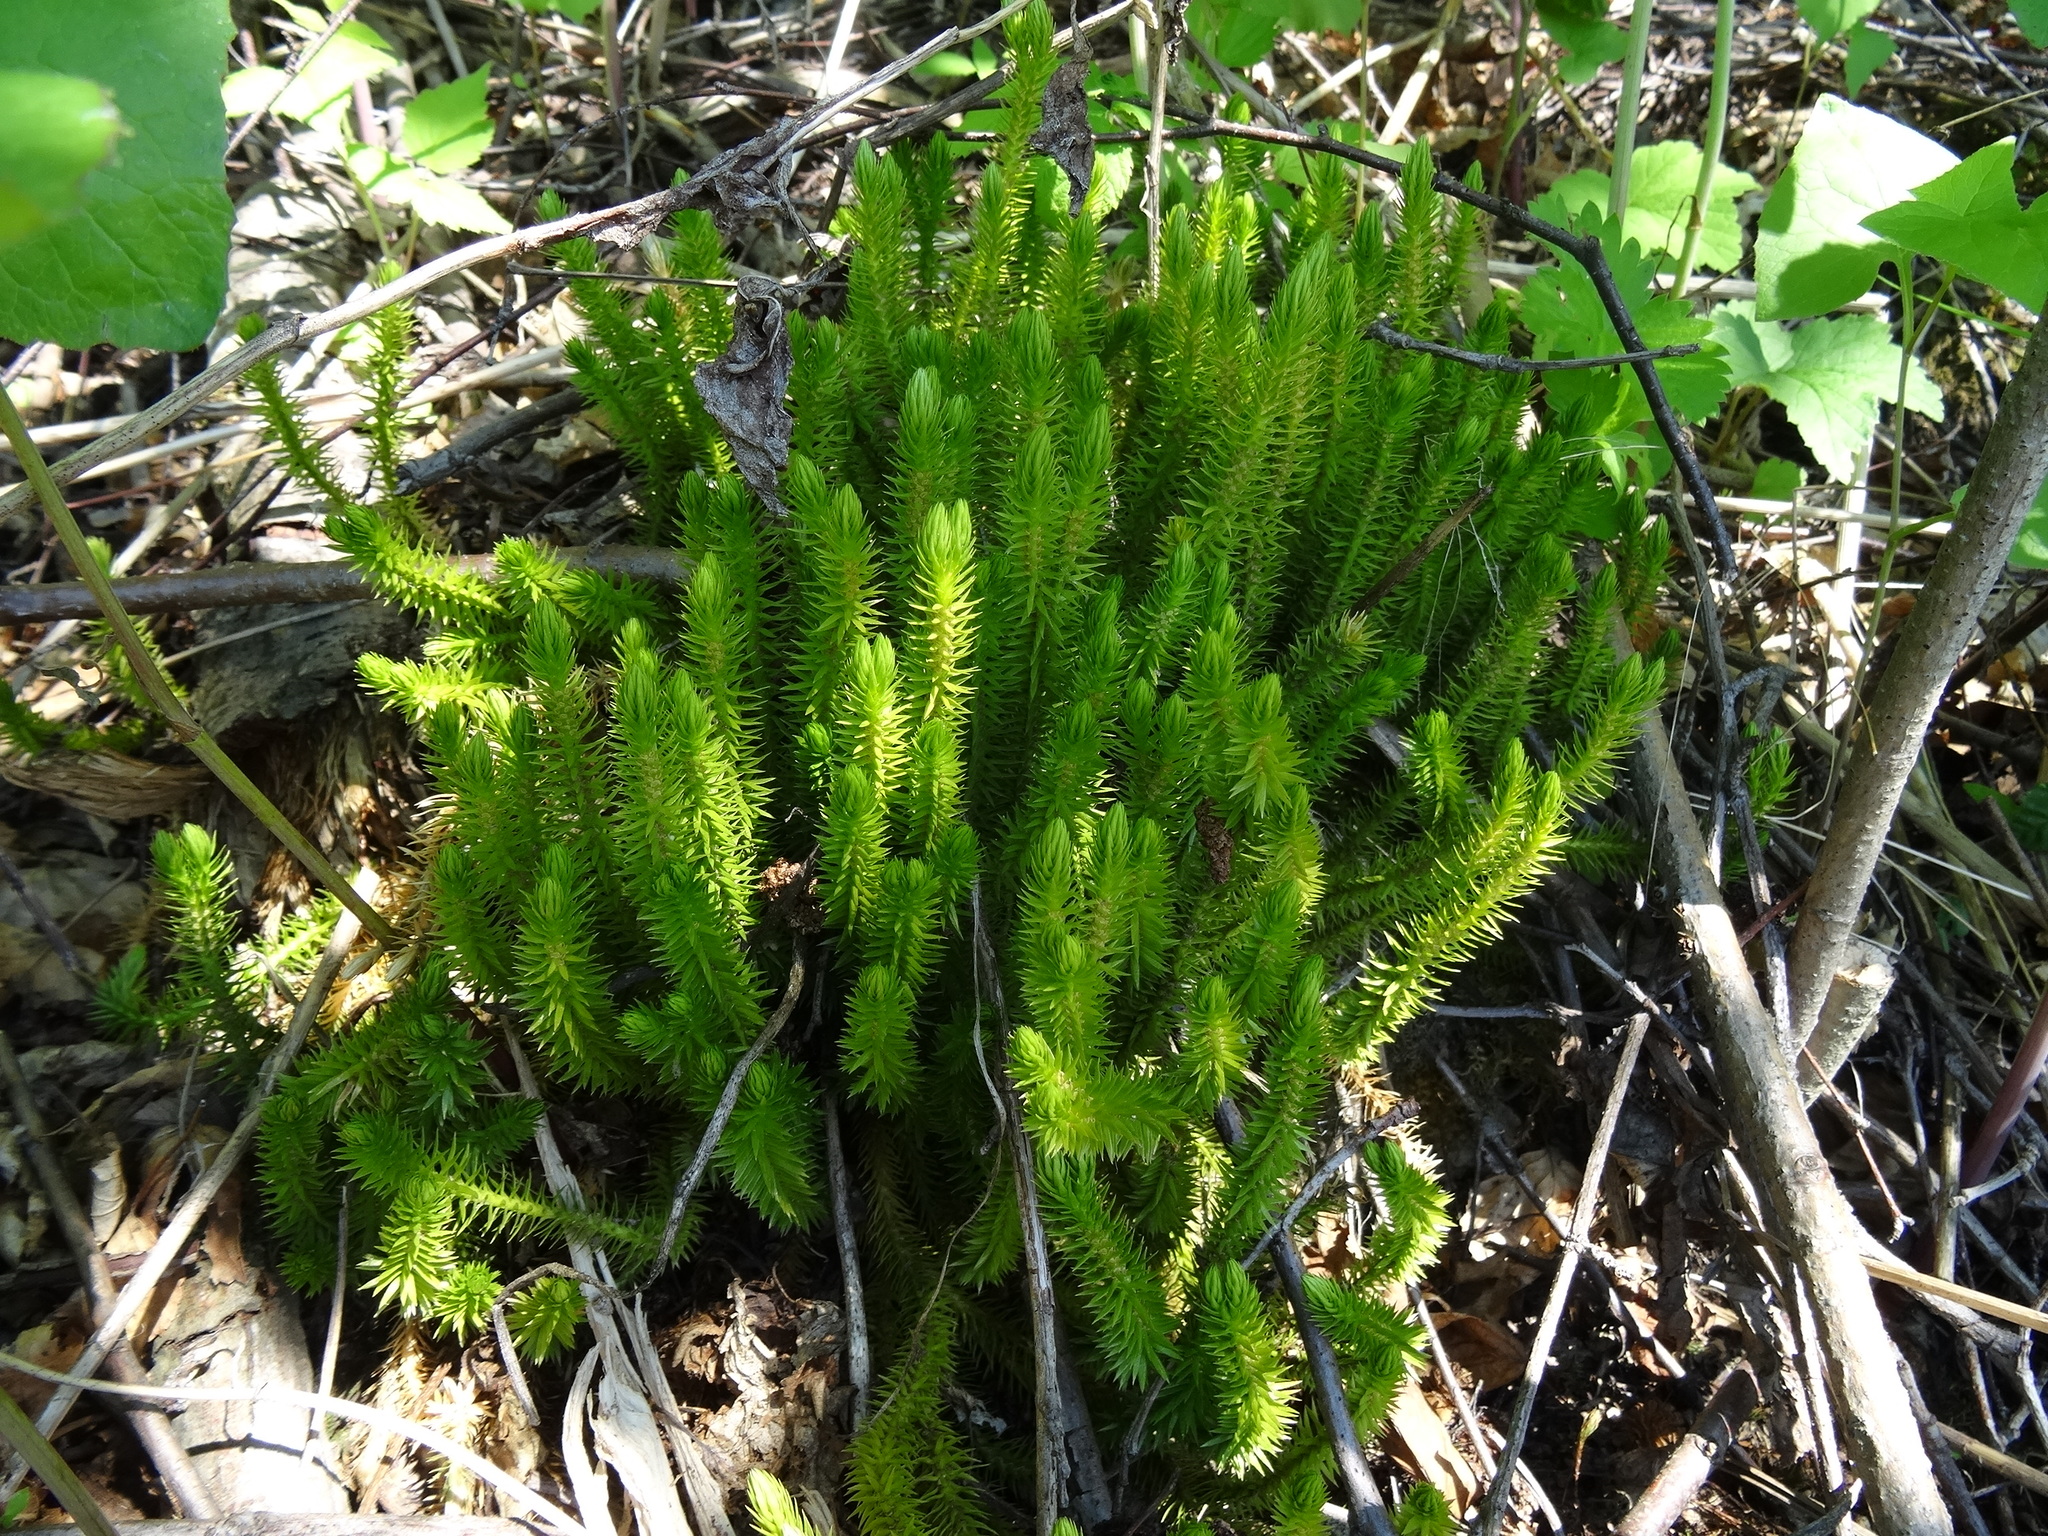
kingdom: Plantae
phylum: Tracheophyta
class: Lycopodiopsida
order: Lycopodiales
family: Lycopodiaceae
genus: Huperzia
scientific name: Huperzia selago
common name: Northern firmoss
